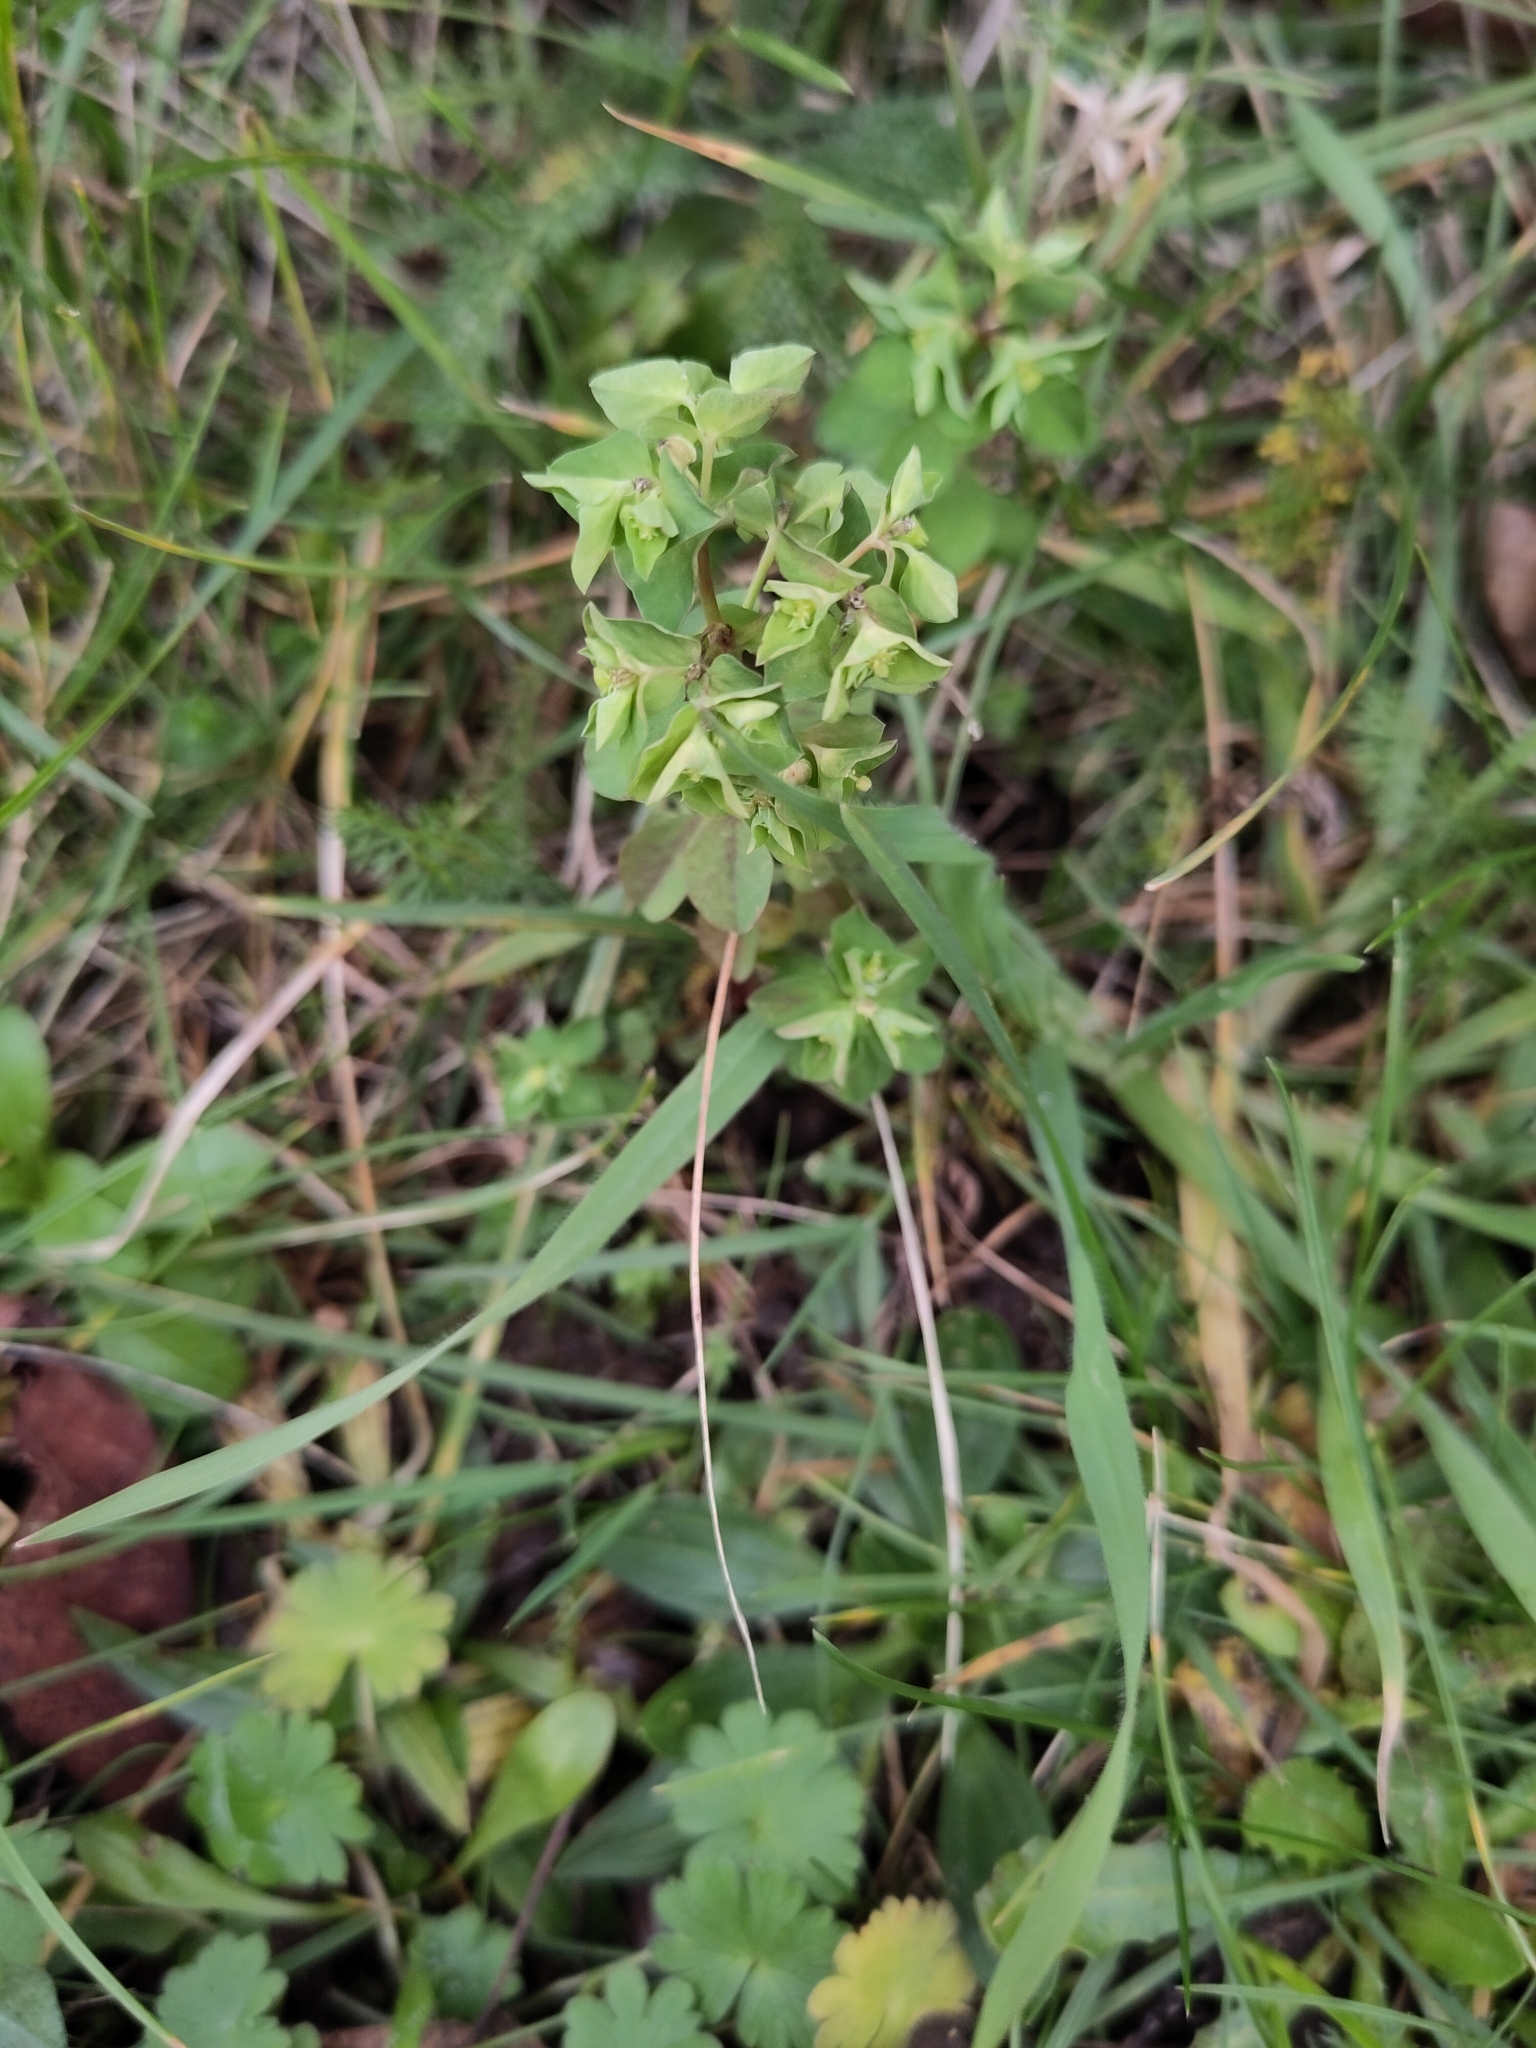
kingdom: Plantae
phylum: Tracheophyta
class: Magnoliopsida
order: Malpighiales
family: Euphorbiaceae
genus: Euphorbia
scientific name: Euphorbia peplus
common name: Petty spurge
